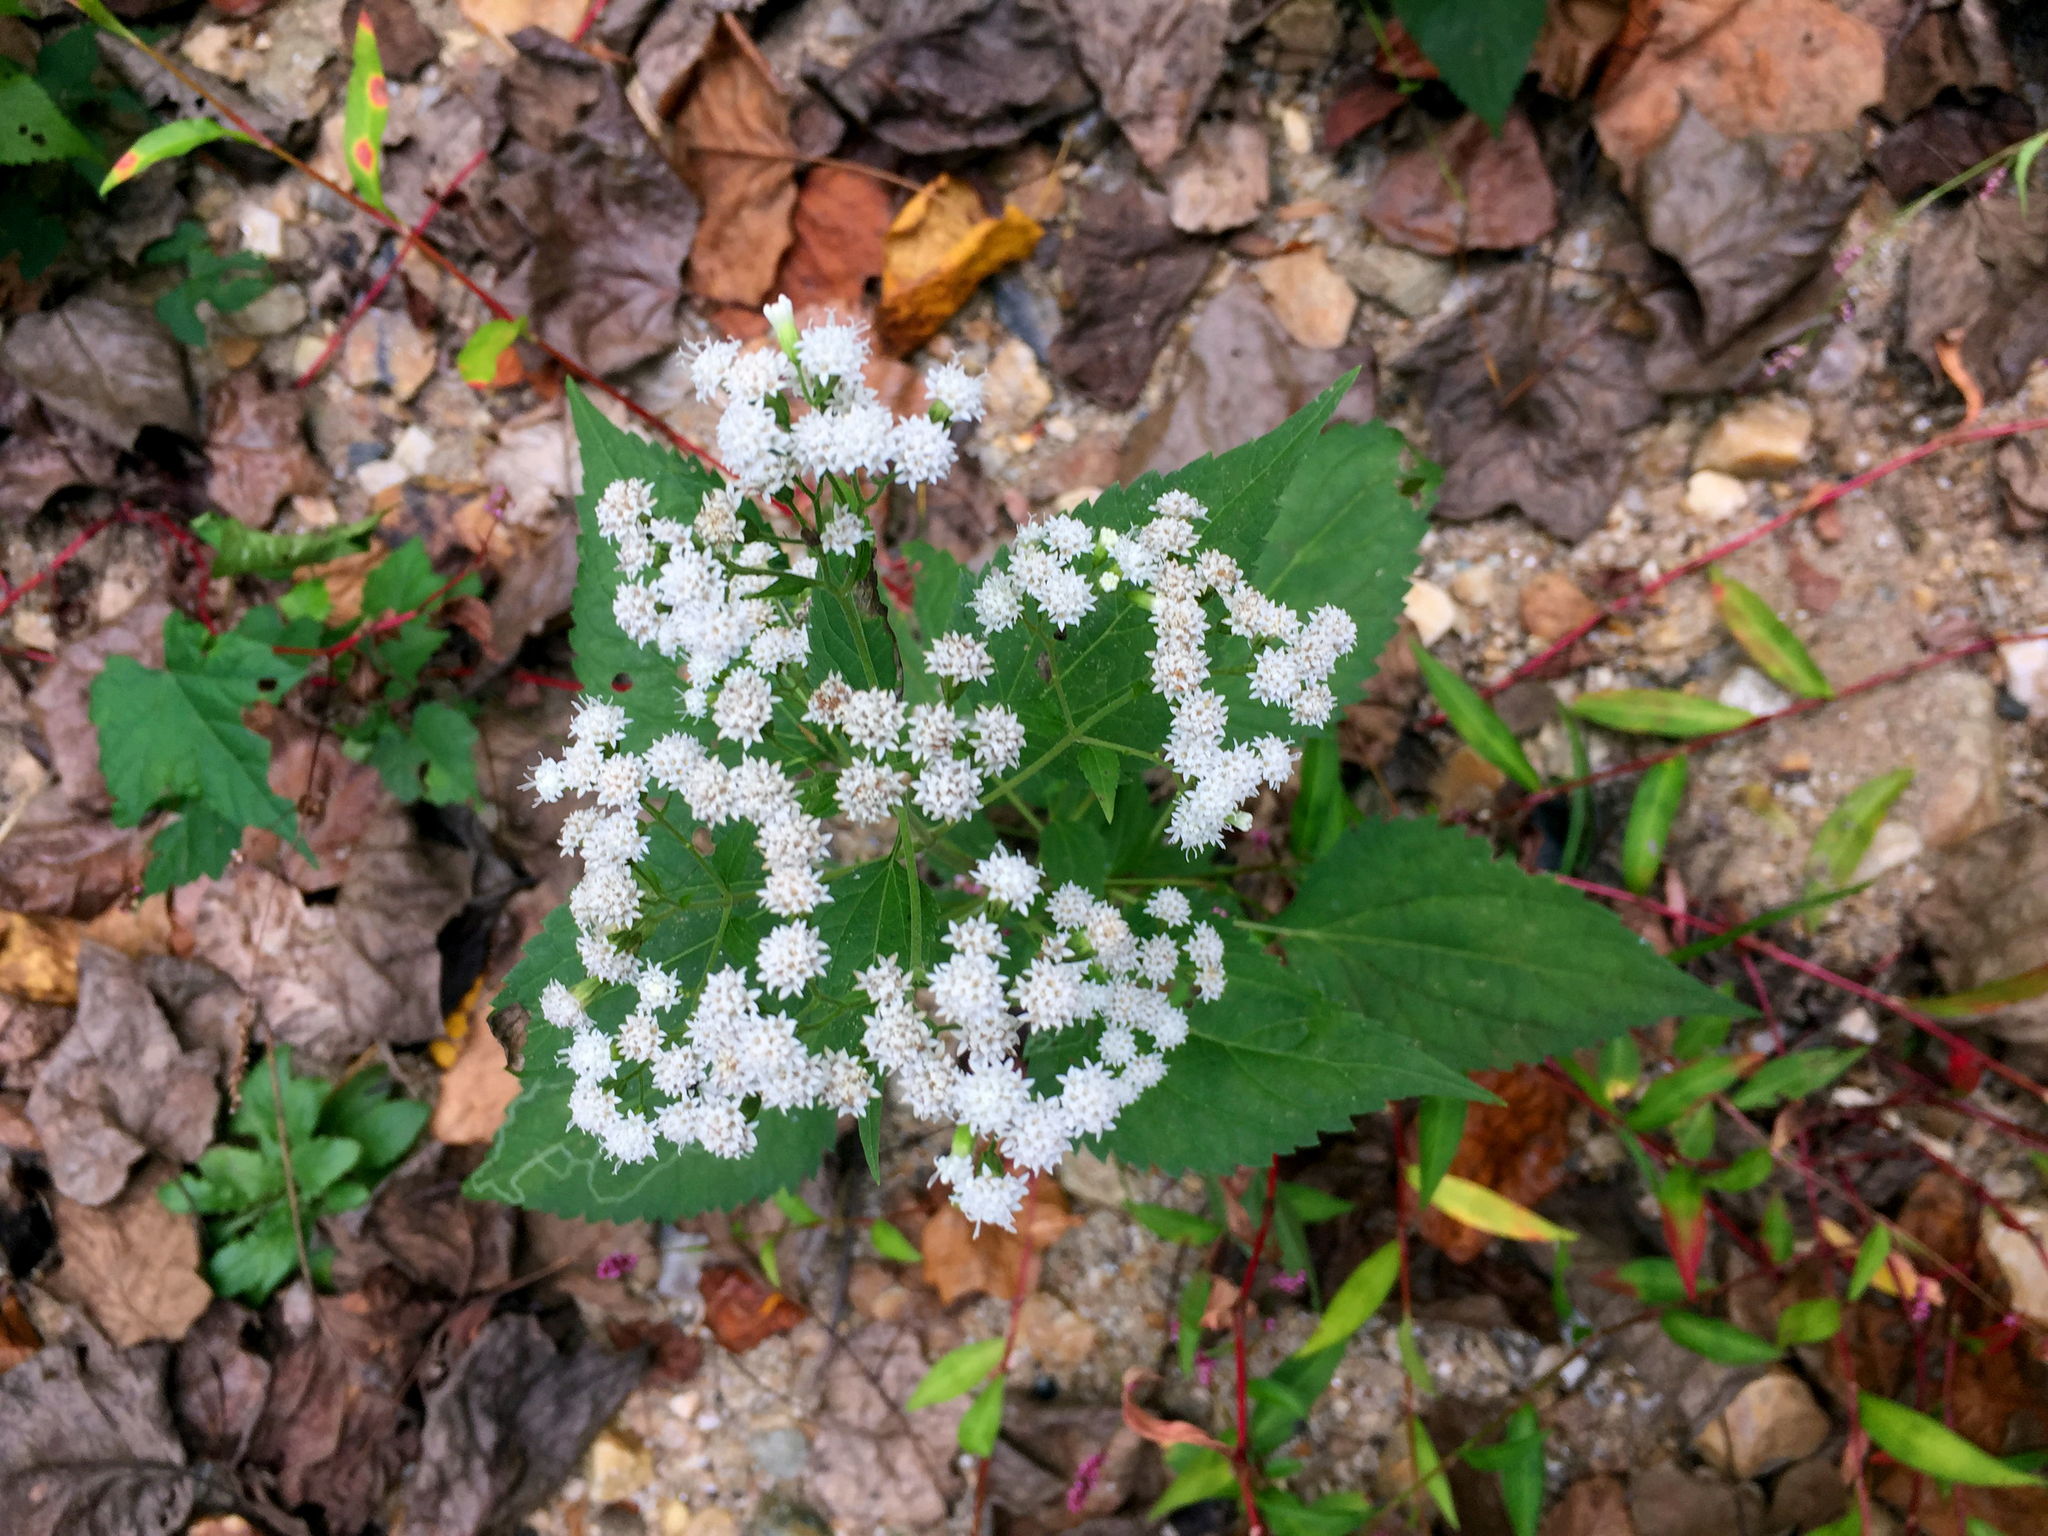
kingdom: Plantae
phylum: Tracheophyta
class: Magnoliopsida
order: Asterales
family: Asteraceae
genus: Ageratina
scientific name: Ageratina altissima
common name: White snakeroot
